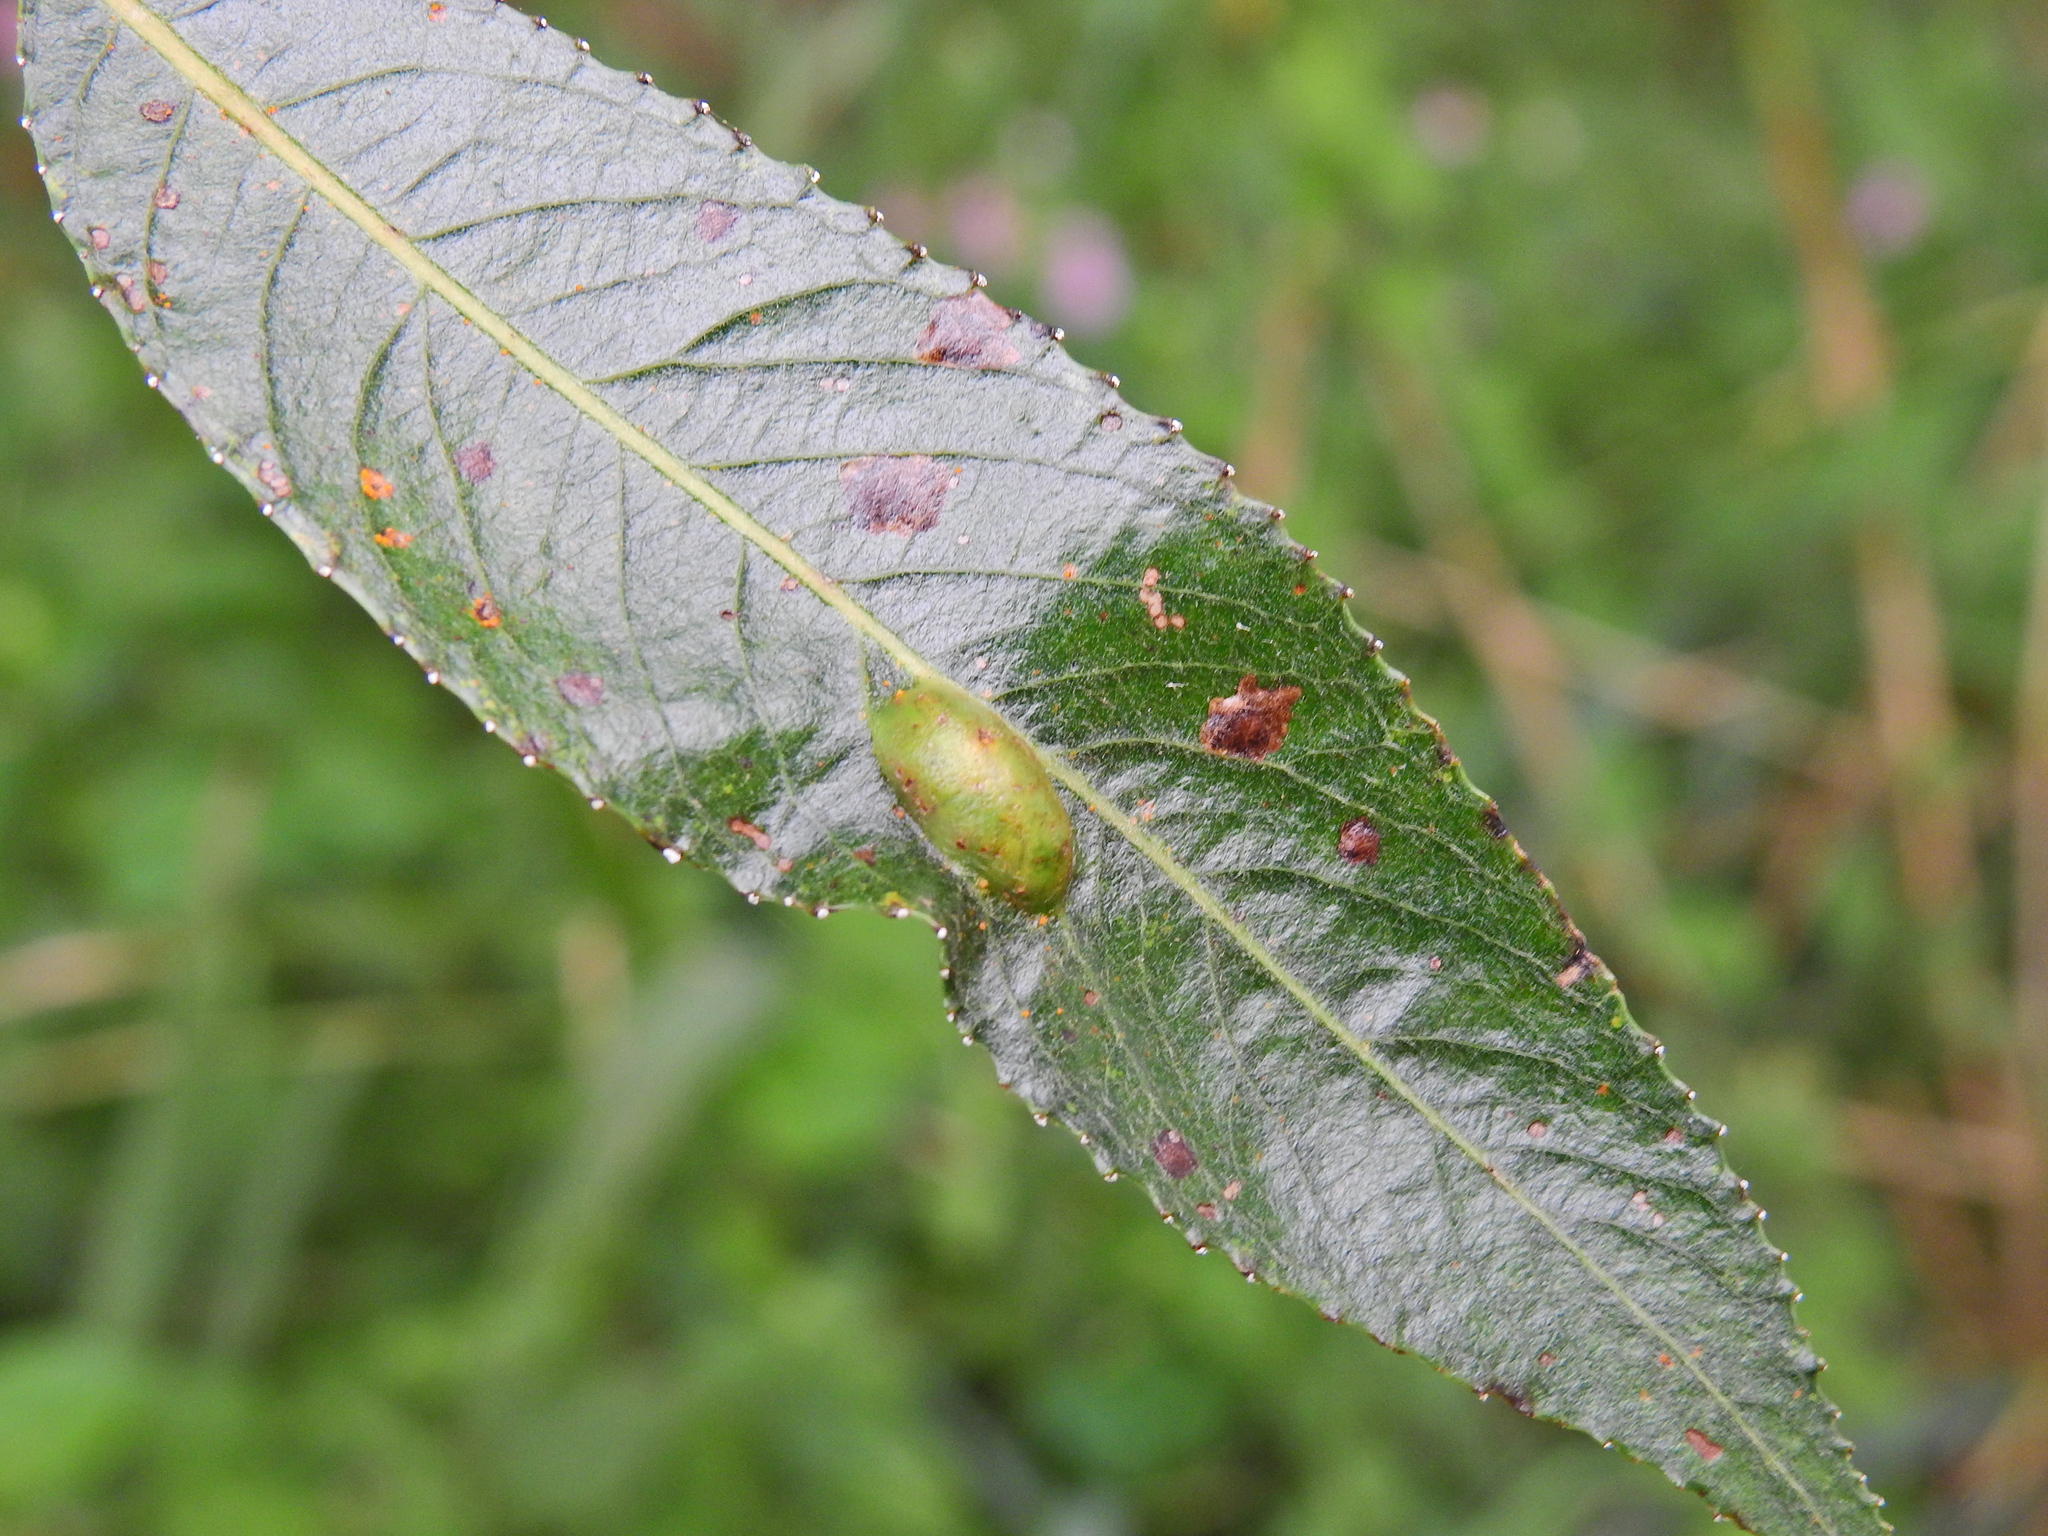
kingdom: Animalia
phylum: Arthropoda
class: Insecta
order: Hymenoptera
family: Tenthredinidae
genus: Pontania
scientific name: Pontania proxima
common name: Common sawfly
